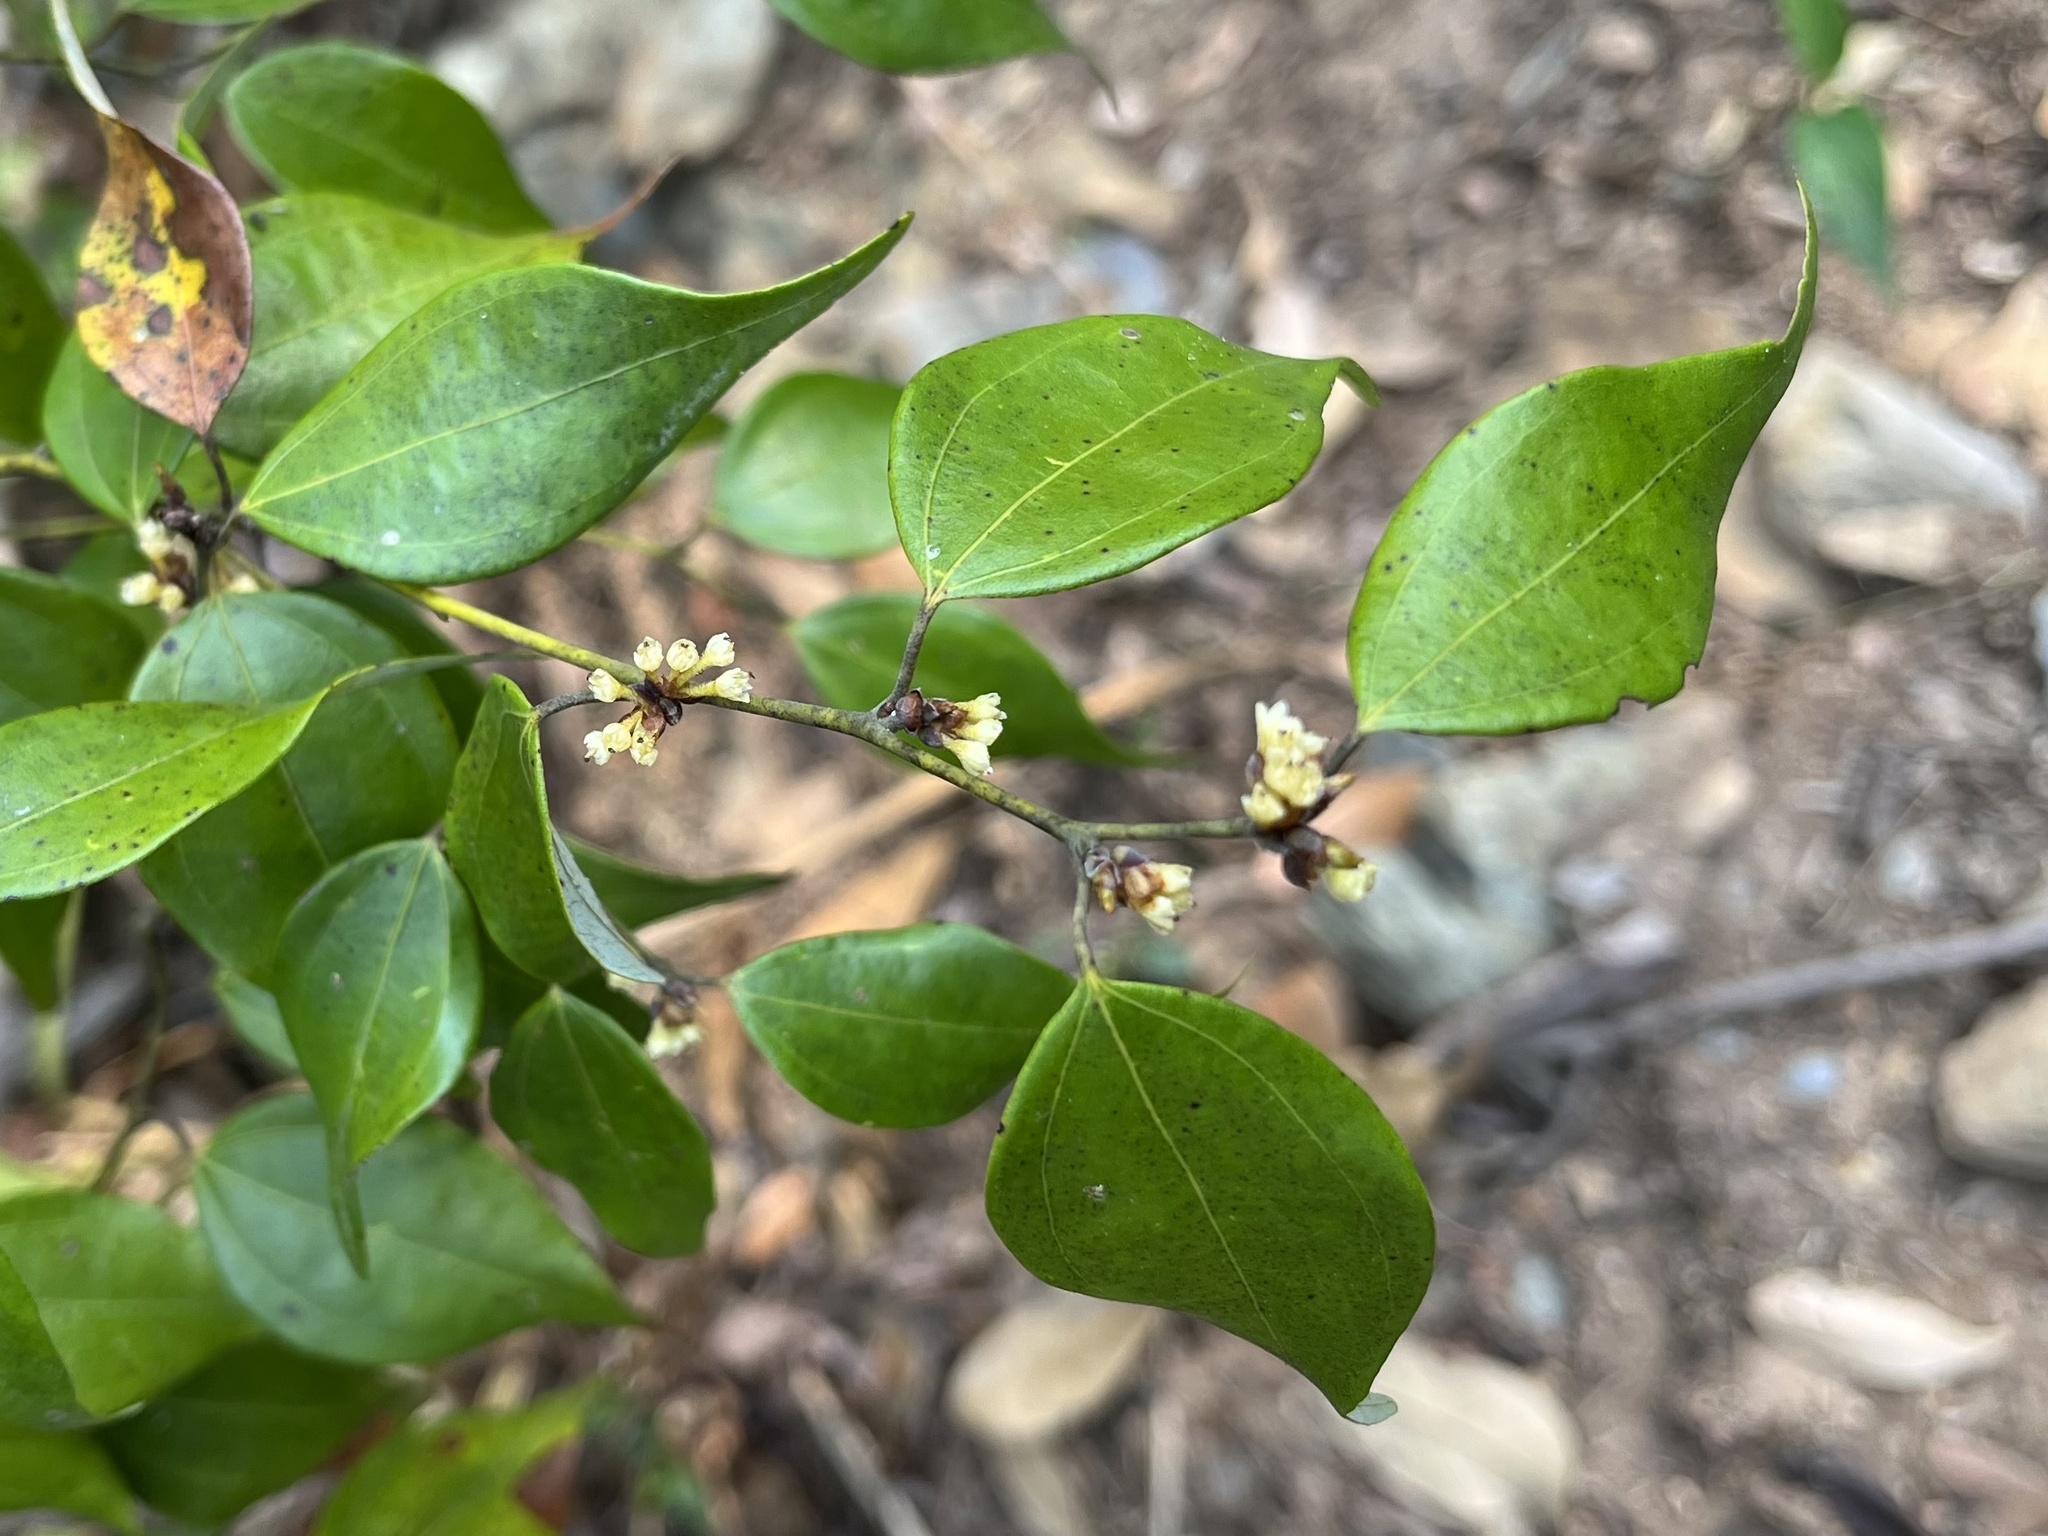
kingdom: Plantae
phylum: Tracheophyta
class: Magnoliopsida
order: Laurales
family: Lauraceae
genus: Lindera
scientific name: Lindera aggregata
